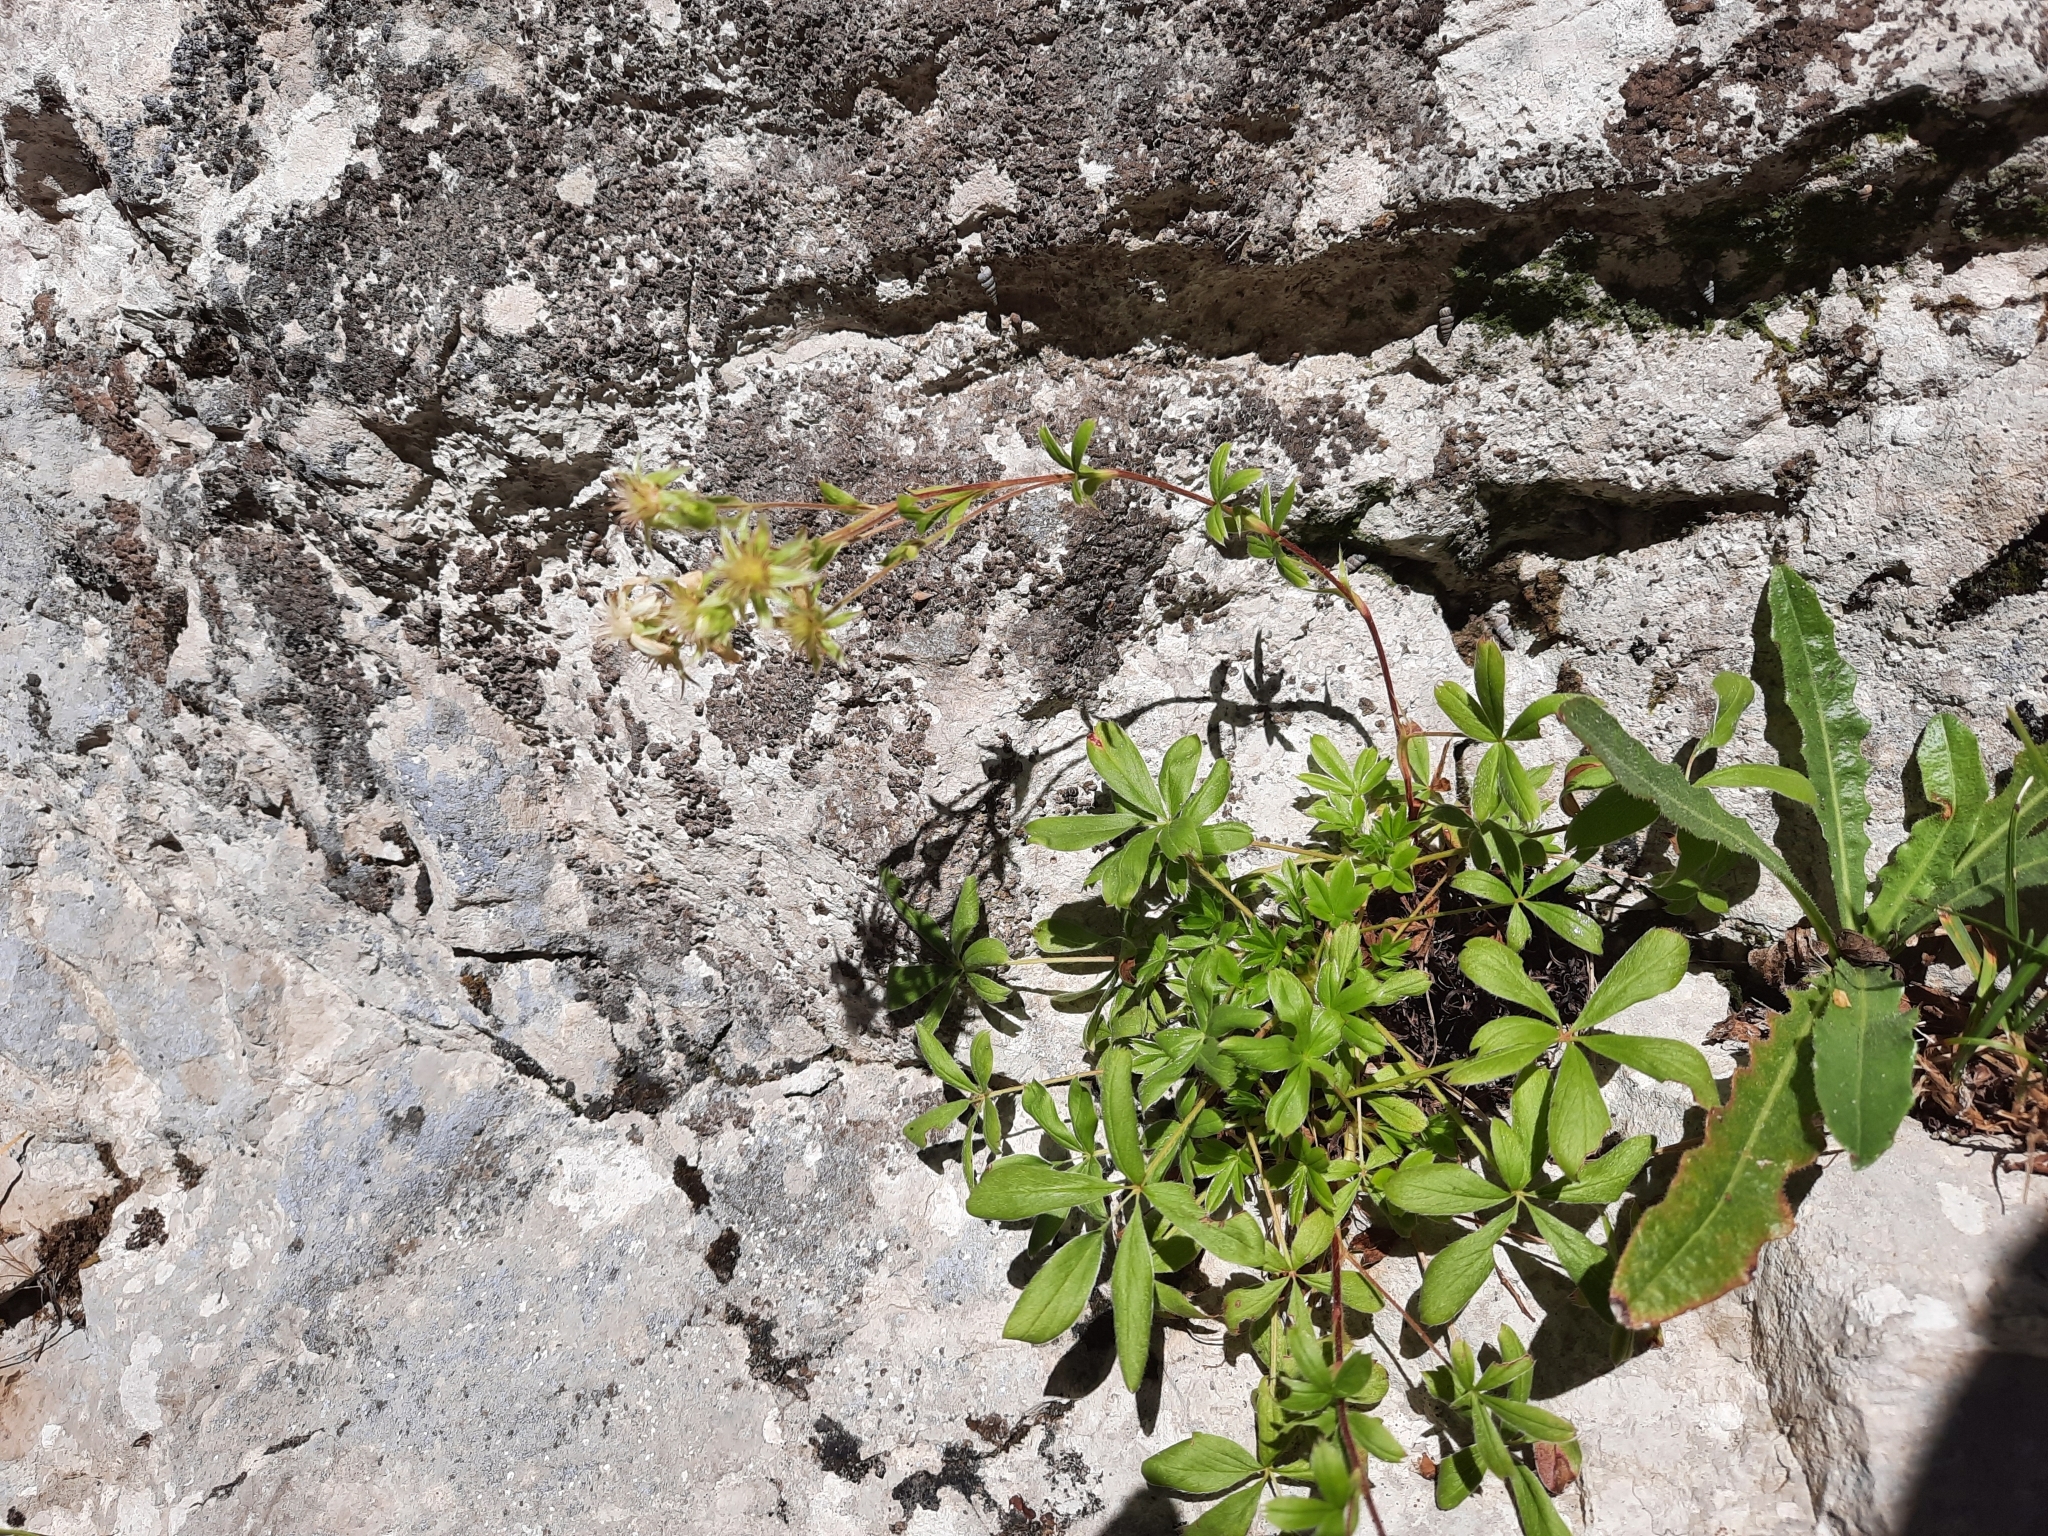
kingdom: Plantae
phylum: Tracheophyta
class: Magnoliopsida
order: Rosales
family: Rosaceae
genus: Potentilla
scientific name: Potentilla caulescens
